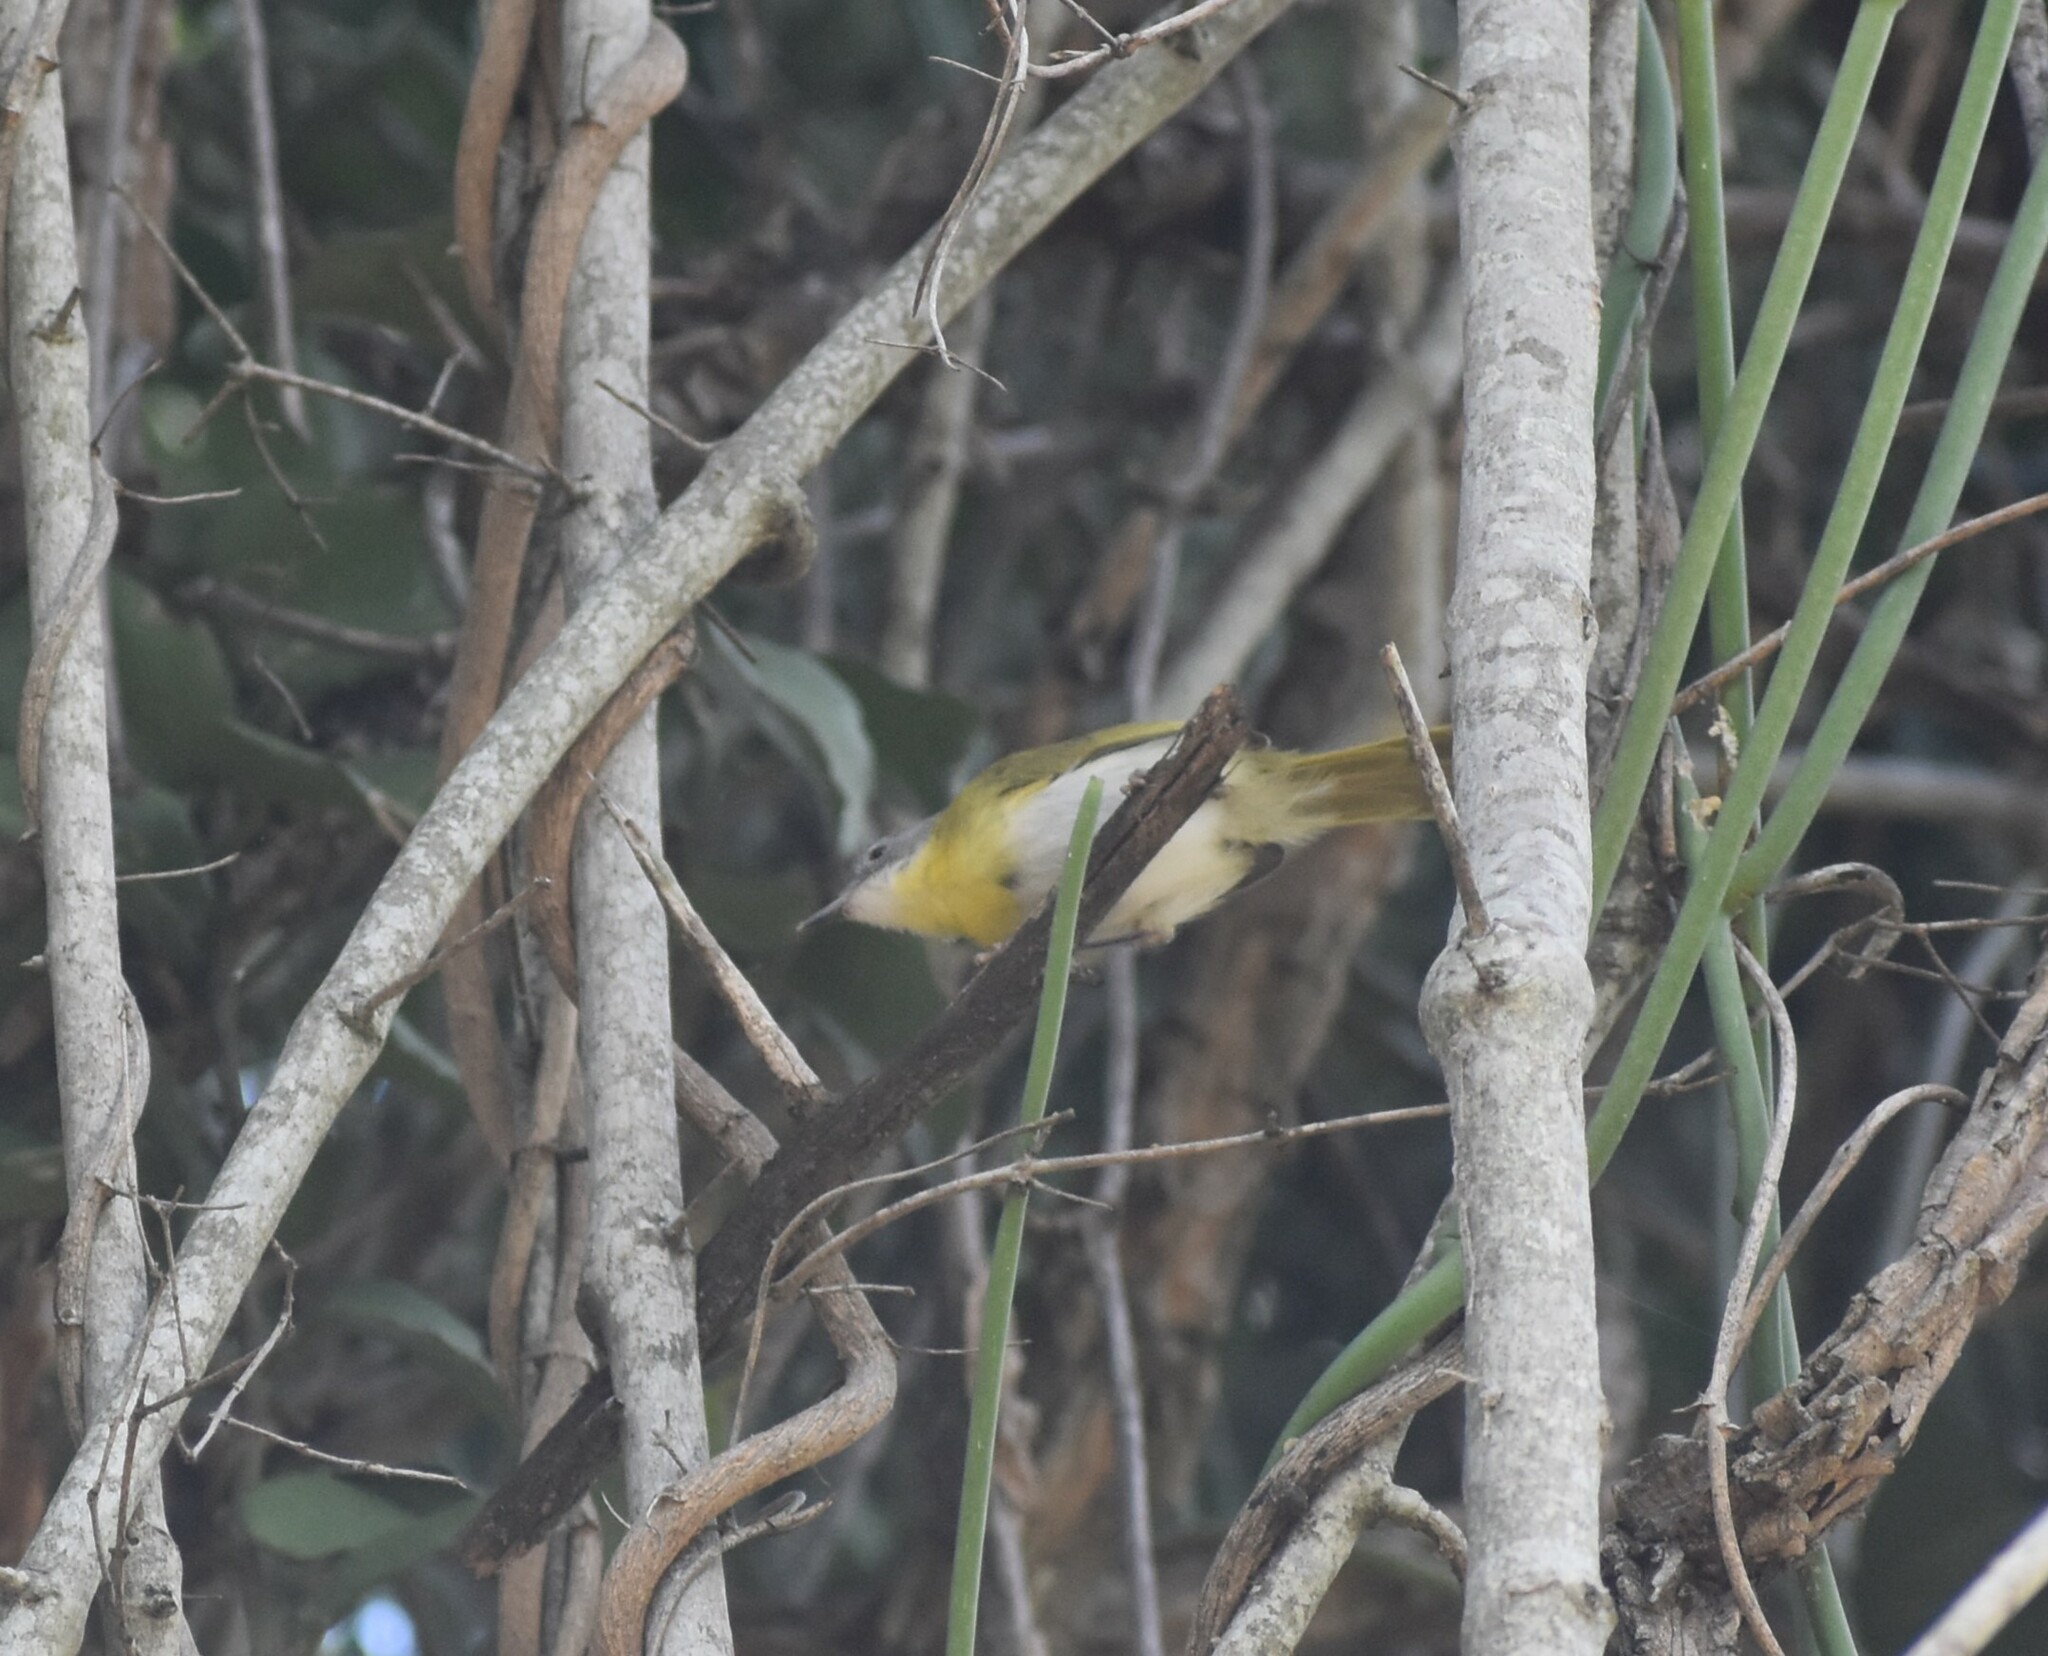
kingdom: Animalia
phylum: Chordata
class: Aves
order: Passeriformes
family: Cisticolidae
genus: Apalis
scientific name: Apalis flavida
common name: Yellow-breasted apalis
